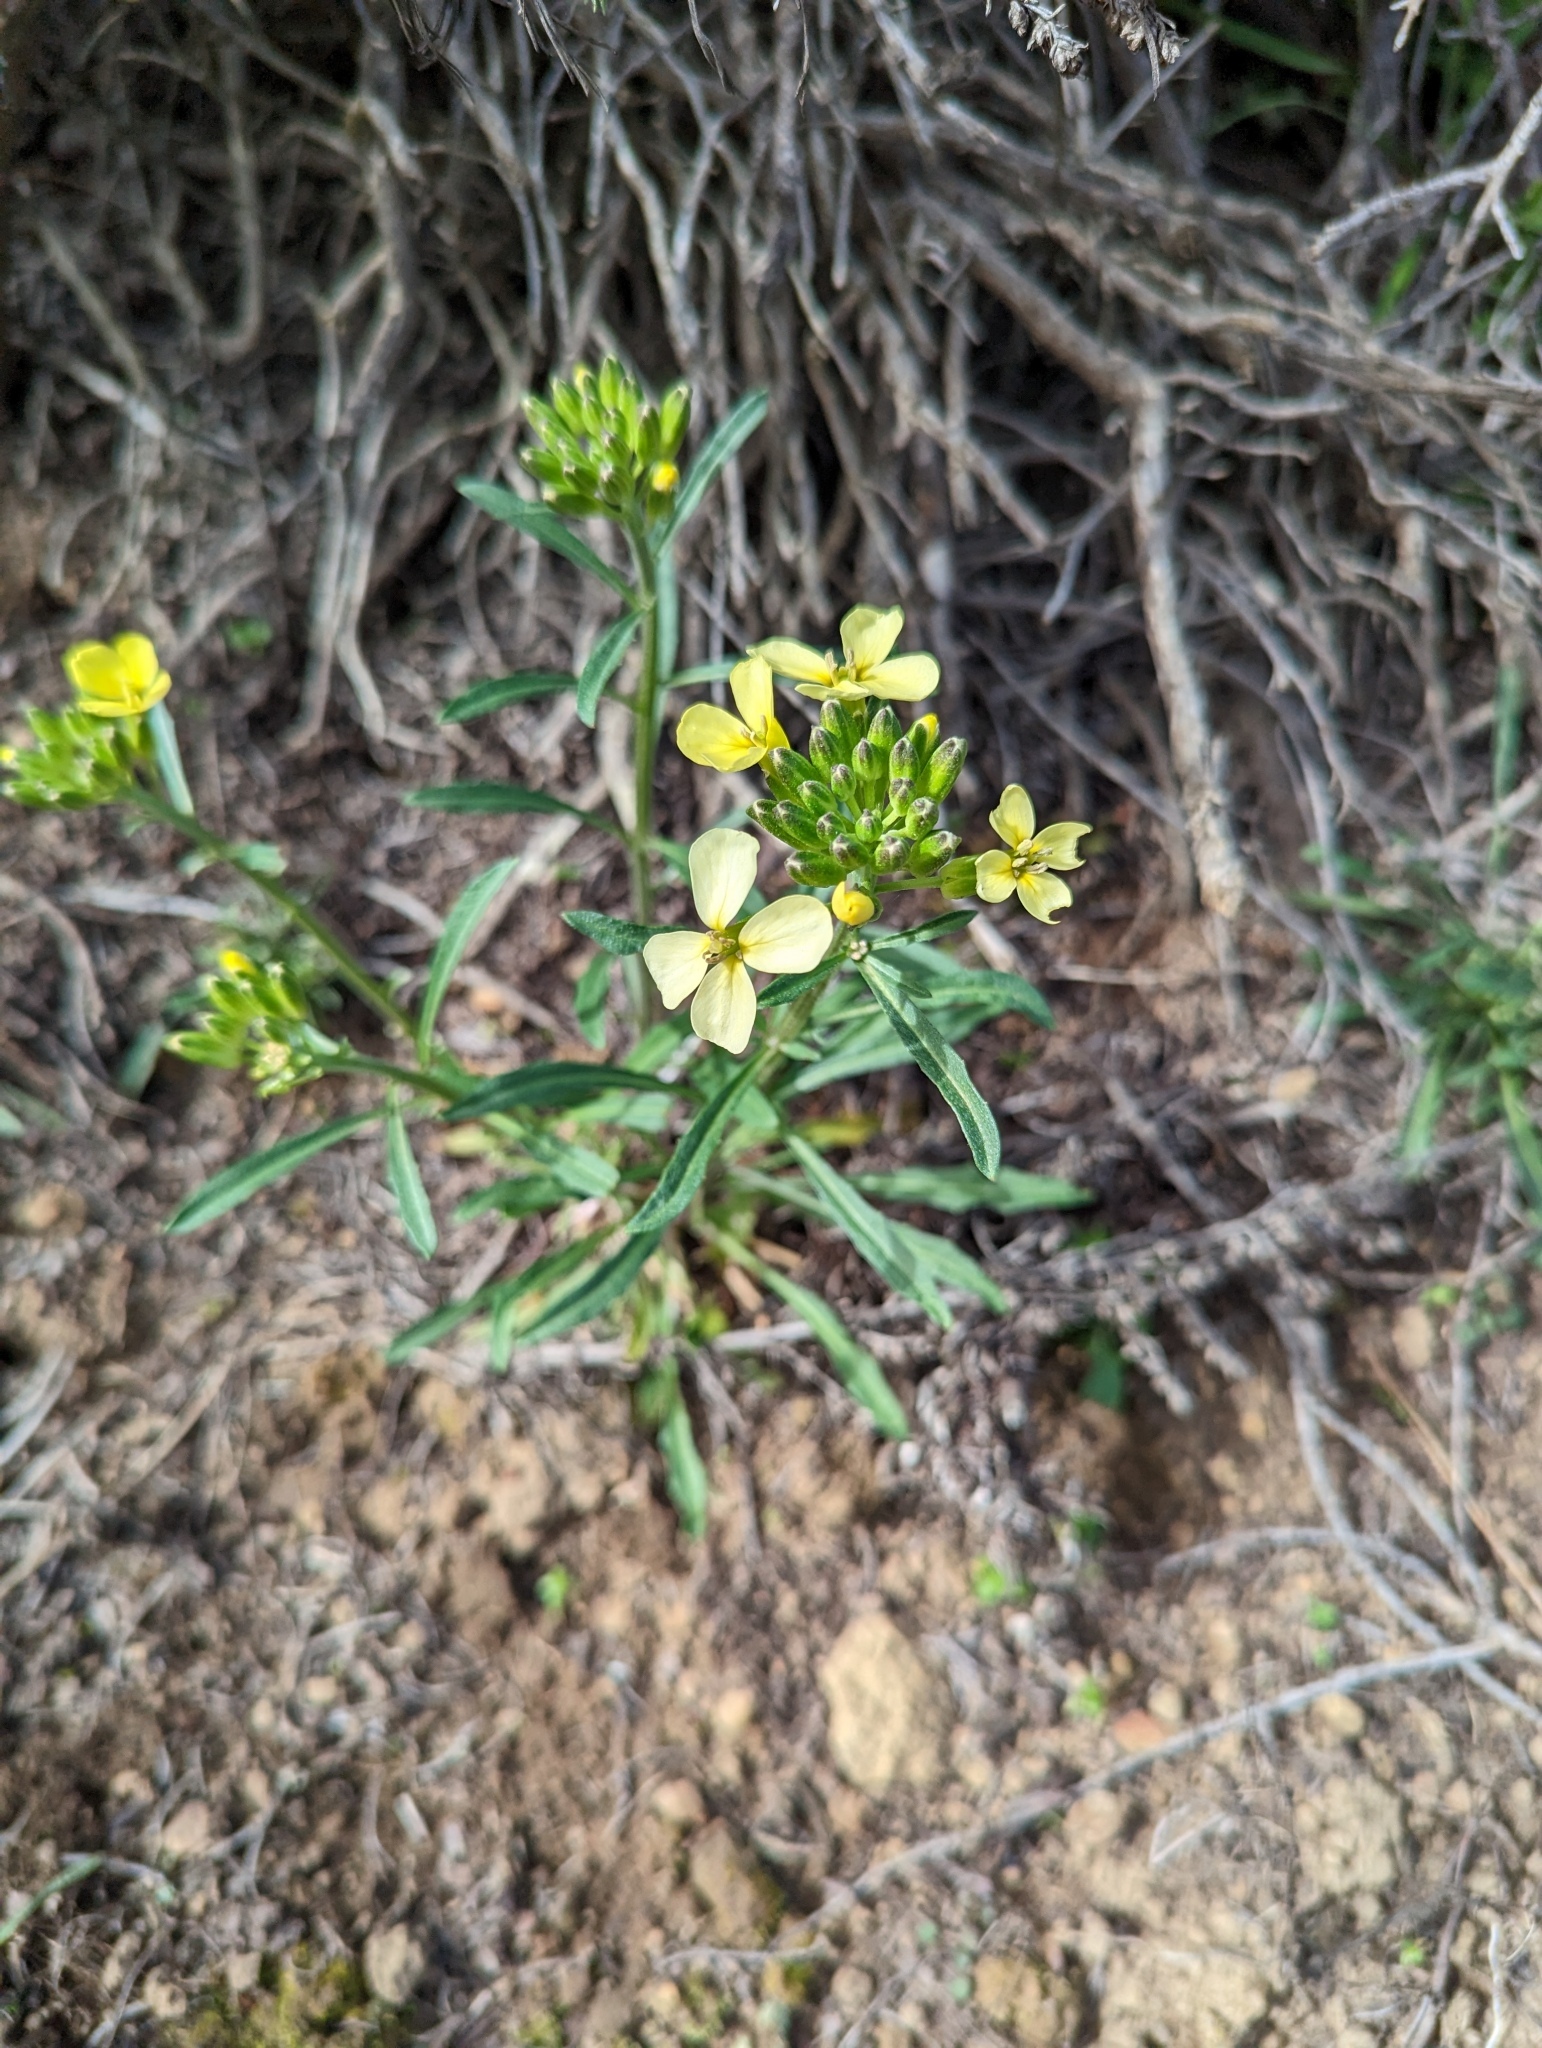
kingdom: Plantae
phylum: Tracheophyta
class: Magnoliopsida
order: Brassicales
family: Brassicaceae
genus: Erysimum
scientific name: Erysimum franciscanum
